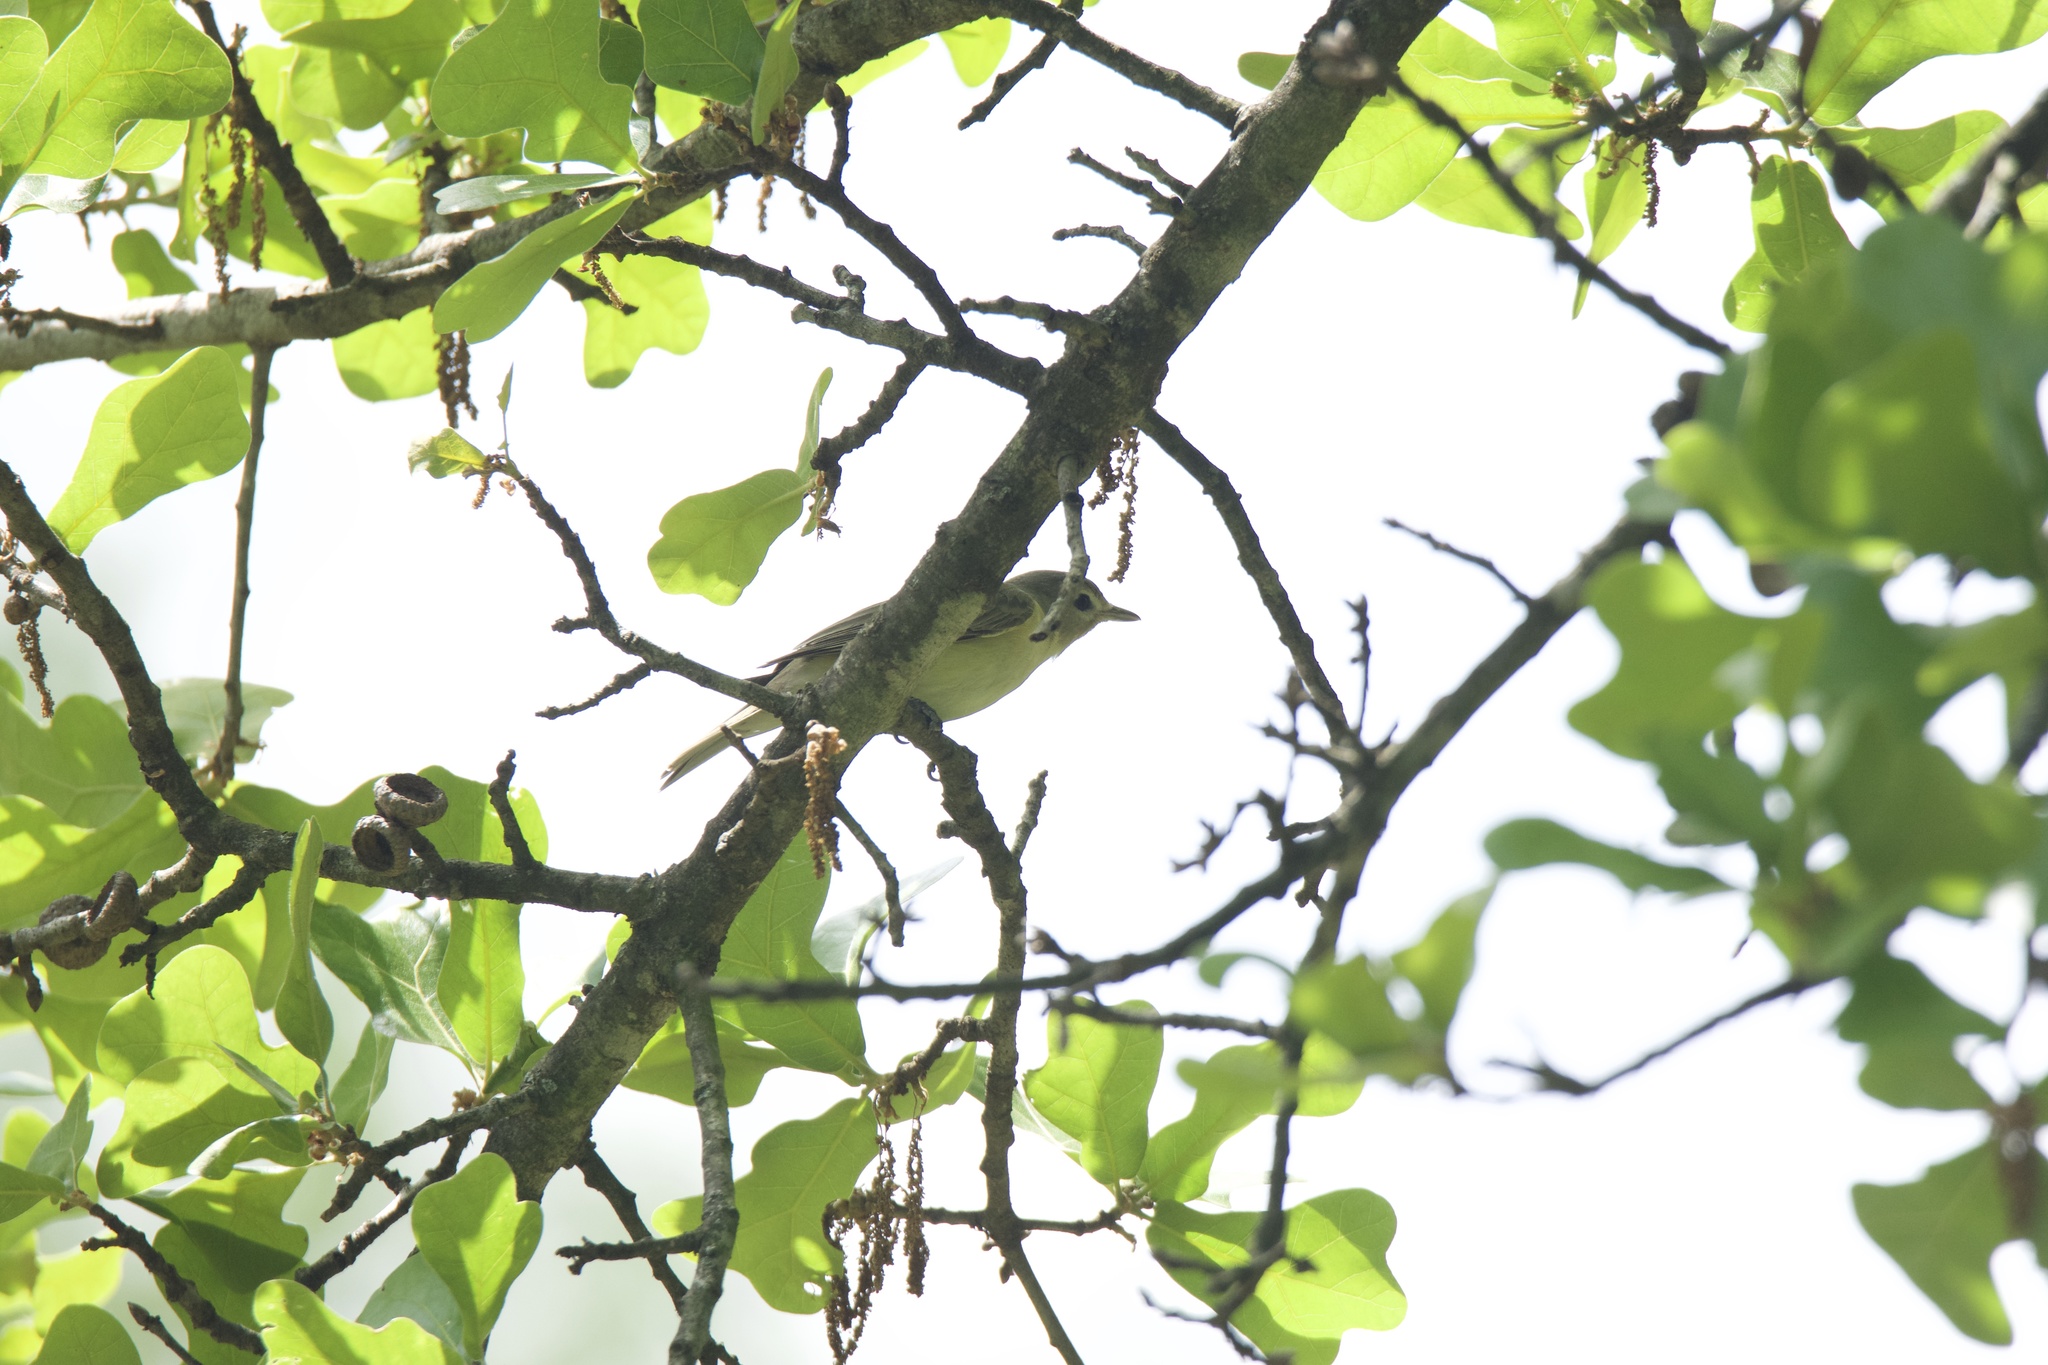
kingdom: Animalia
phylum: Chordata
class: Aves
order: Passeriformes
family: Vireonidae
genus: Vireo
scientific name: Vireo gilvus
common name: Warbling vireo
